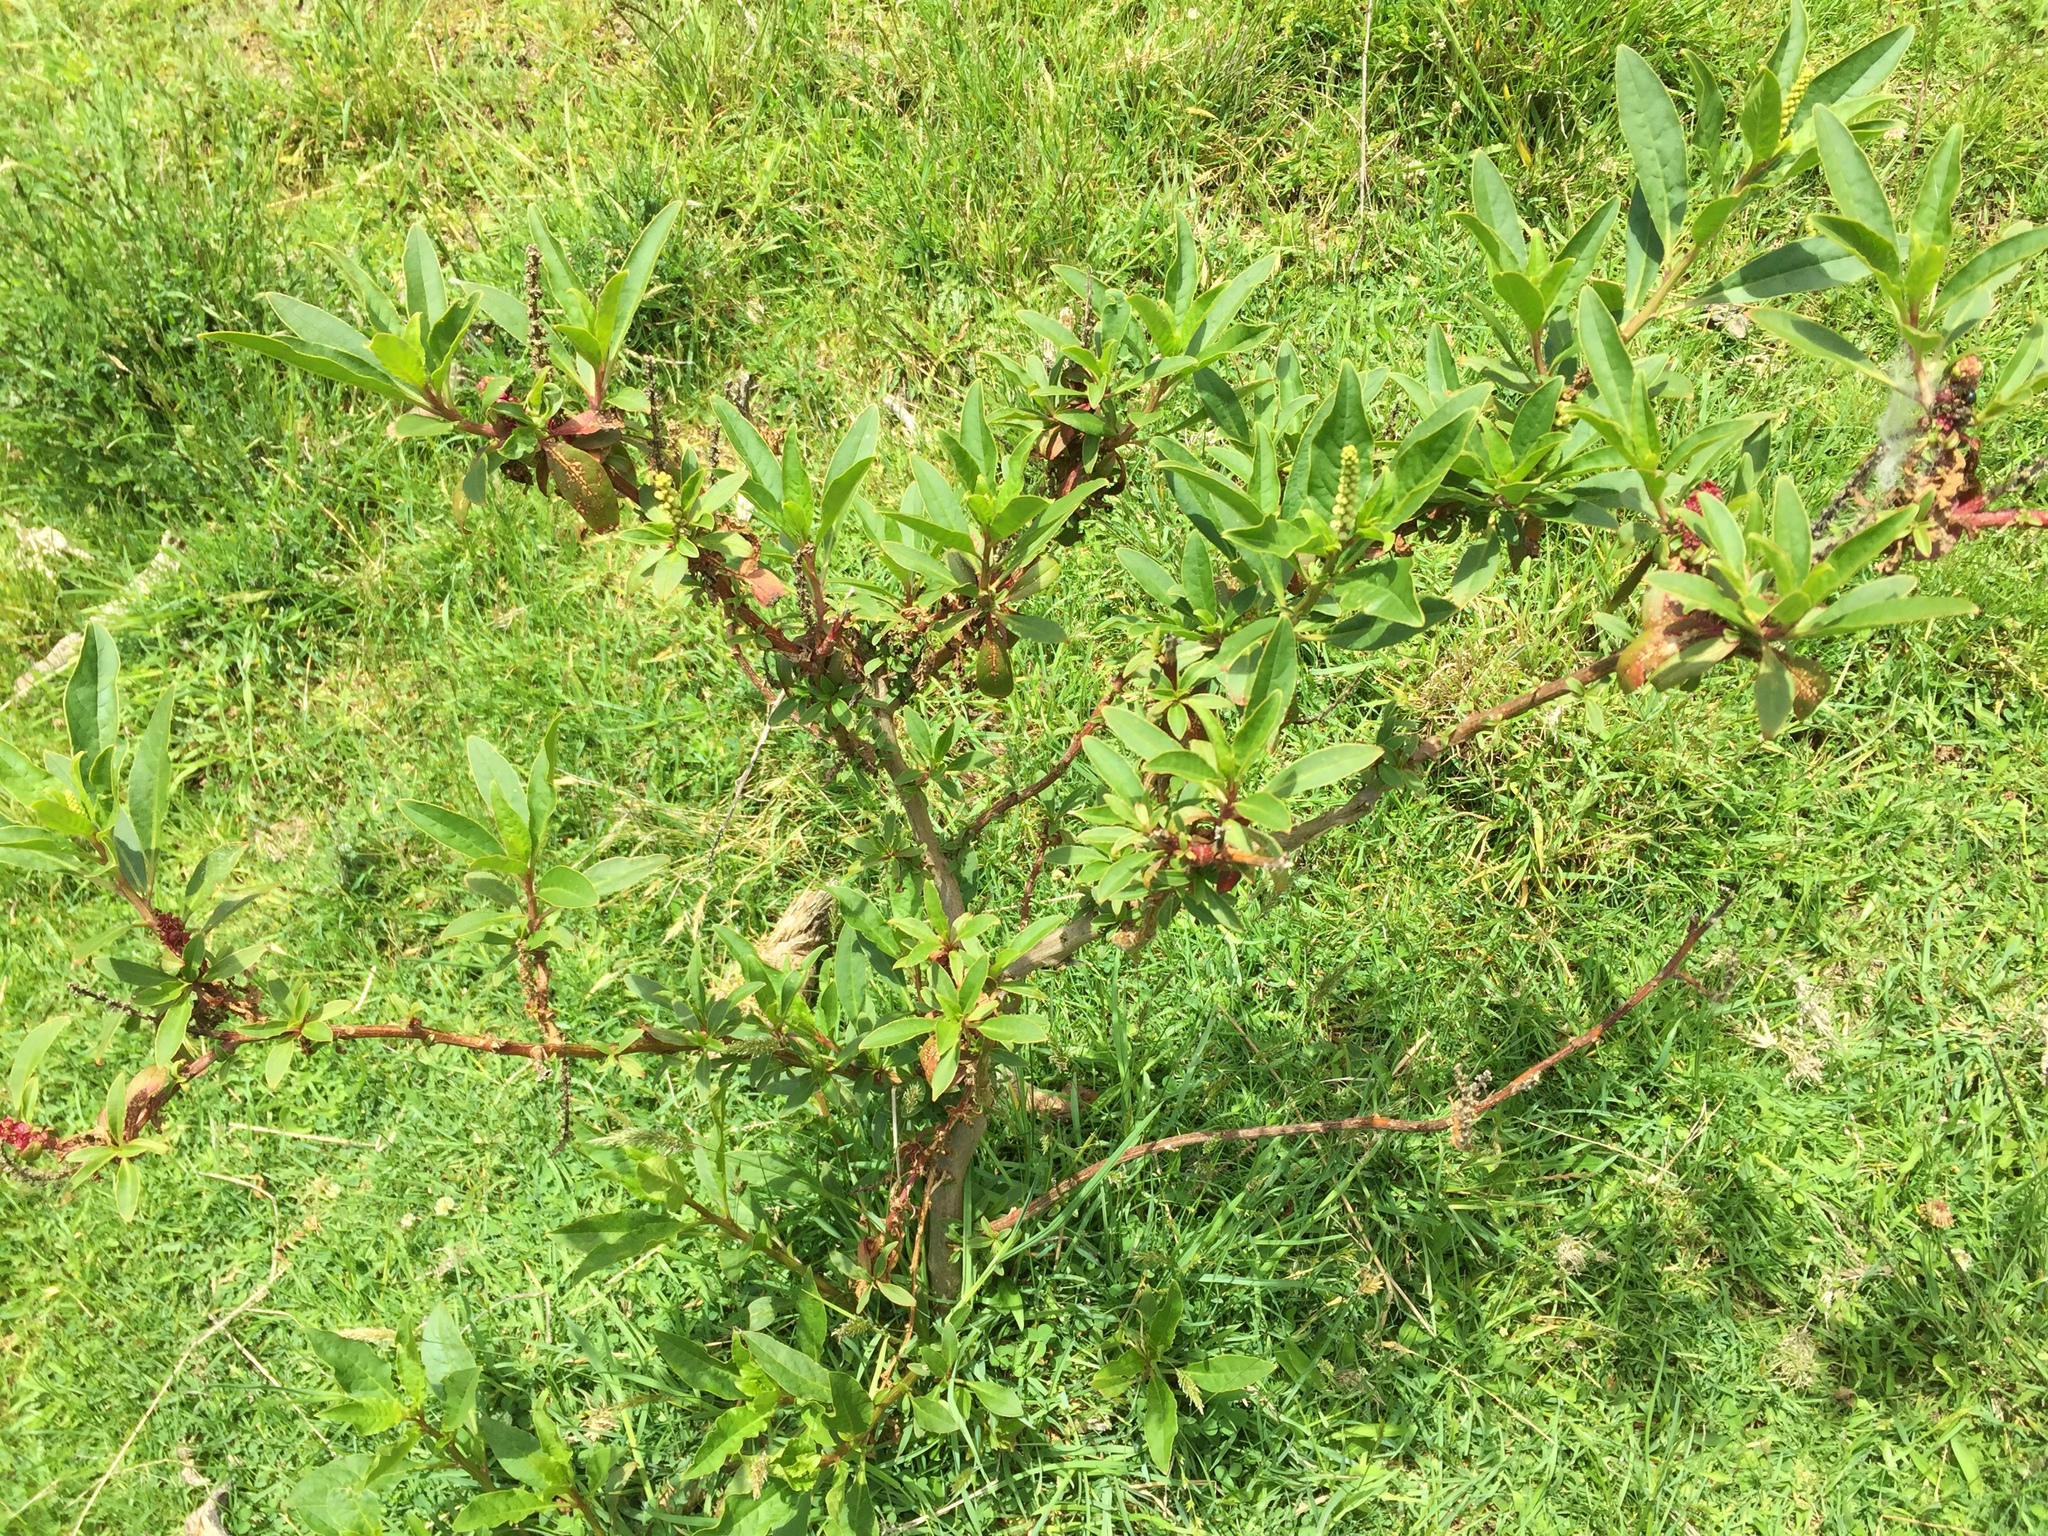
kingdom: Plantae
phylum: Tracheophyta
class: Magnoliopsida
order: Caryophyllales
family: Phytolaccaceae
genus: Phytolacca
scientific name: Phytolacca icosandra
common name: Button pokeweed
